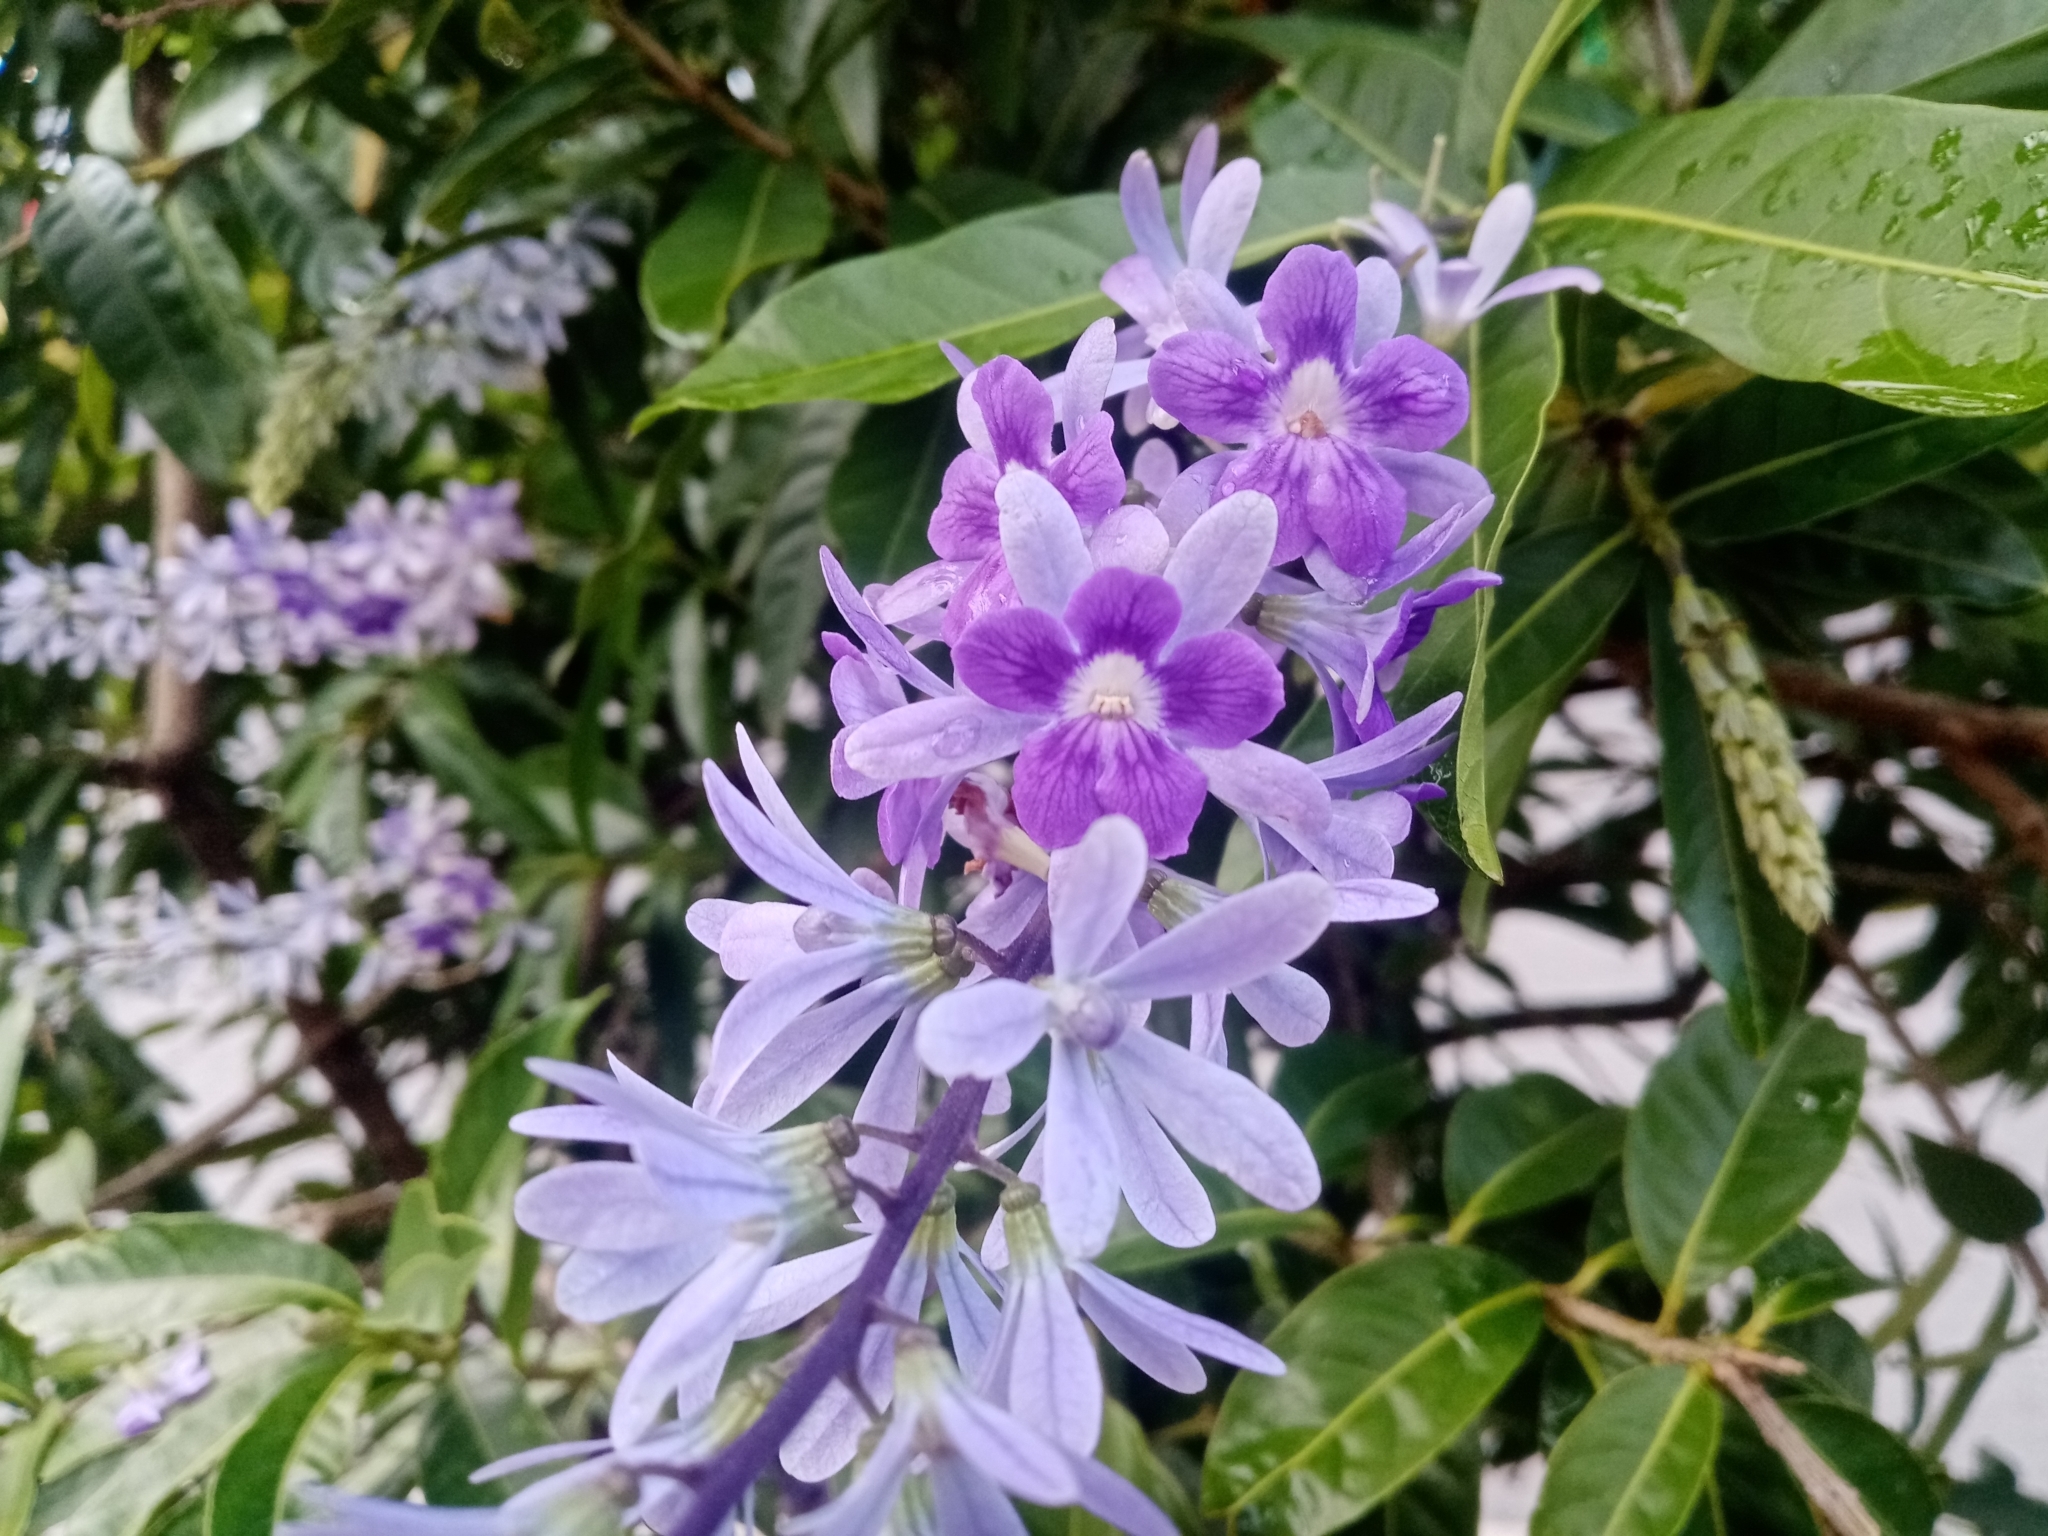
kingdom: Plantae
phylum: Tracheophyta
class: Magnoliopsida
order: Lamiales
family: Verbenaceae
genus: Petrea
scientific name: Petrea volubilis
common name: Queen's-wreath
